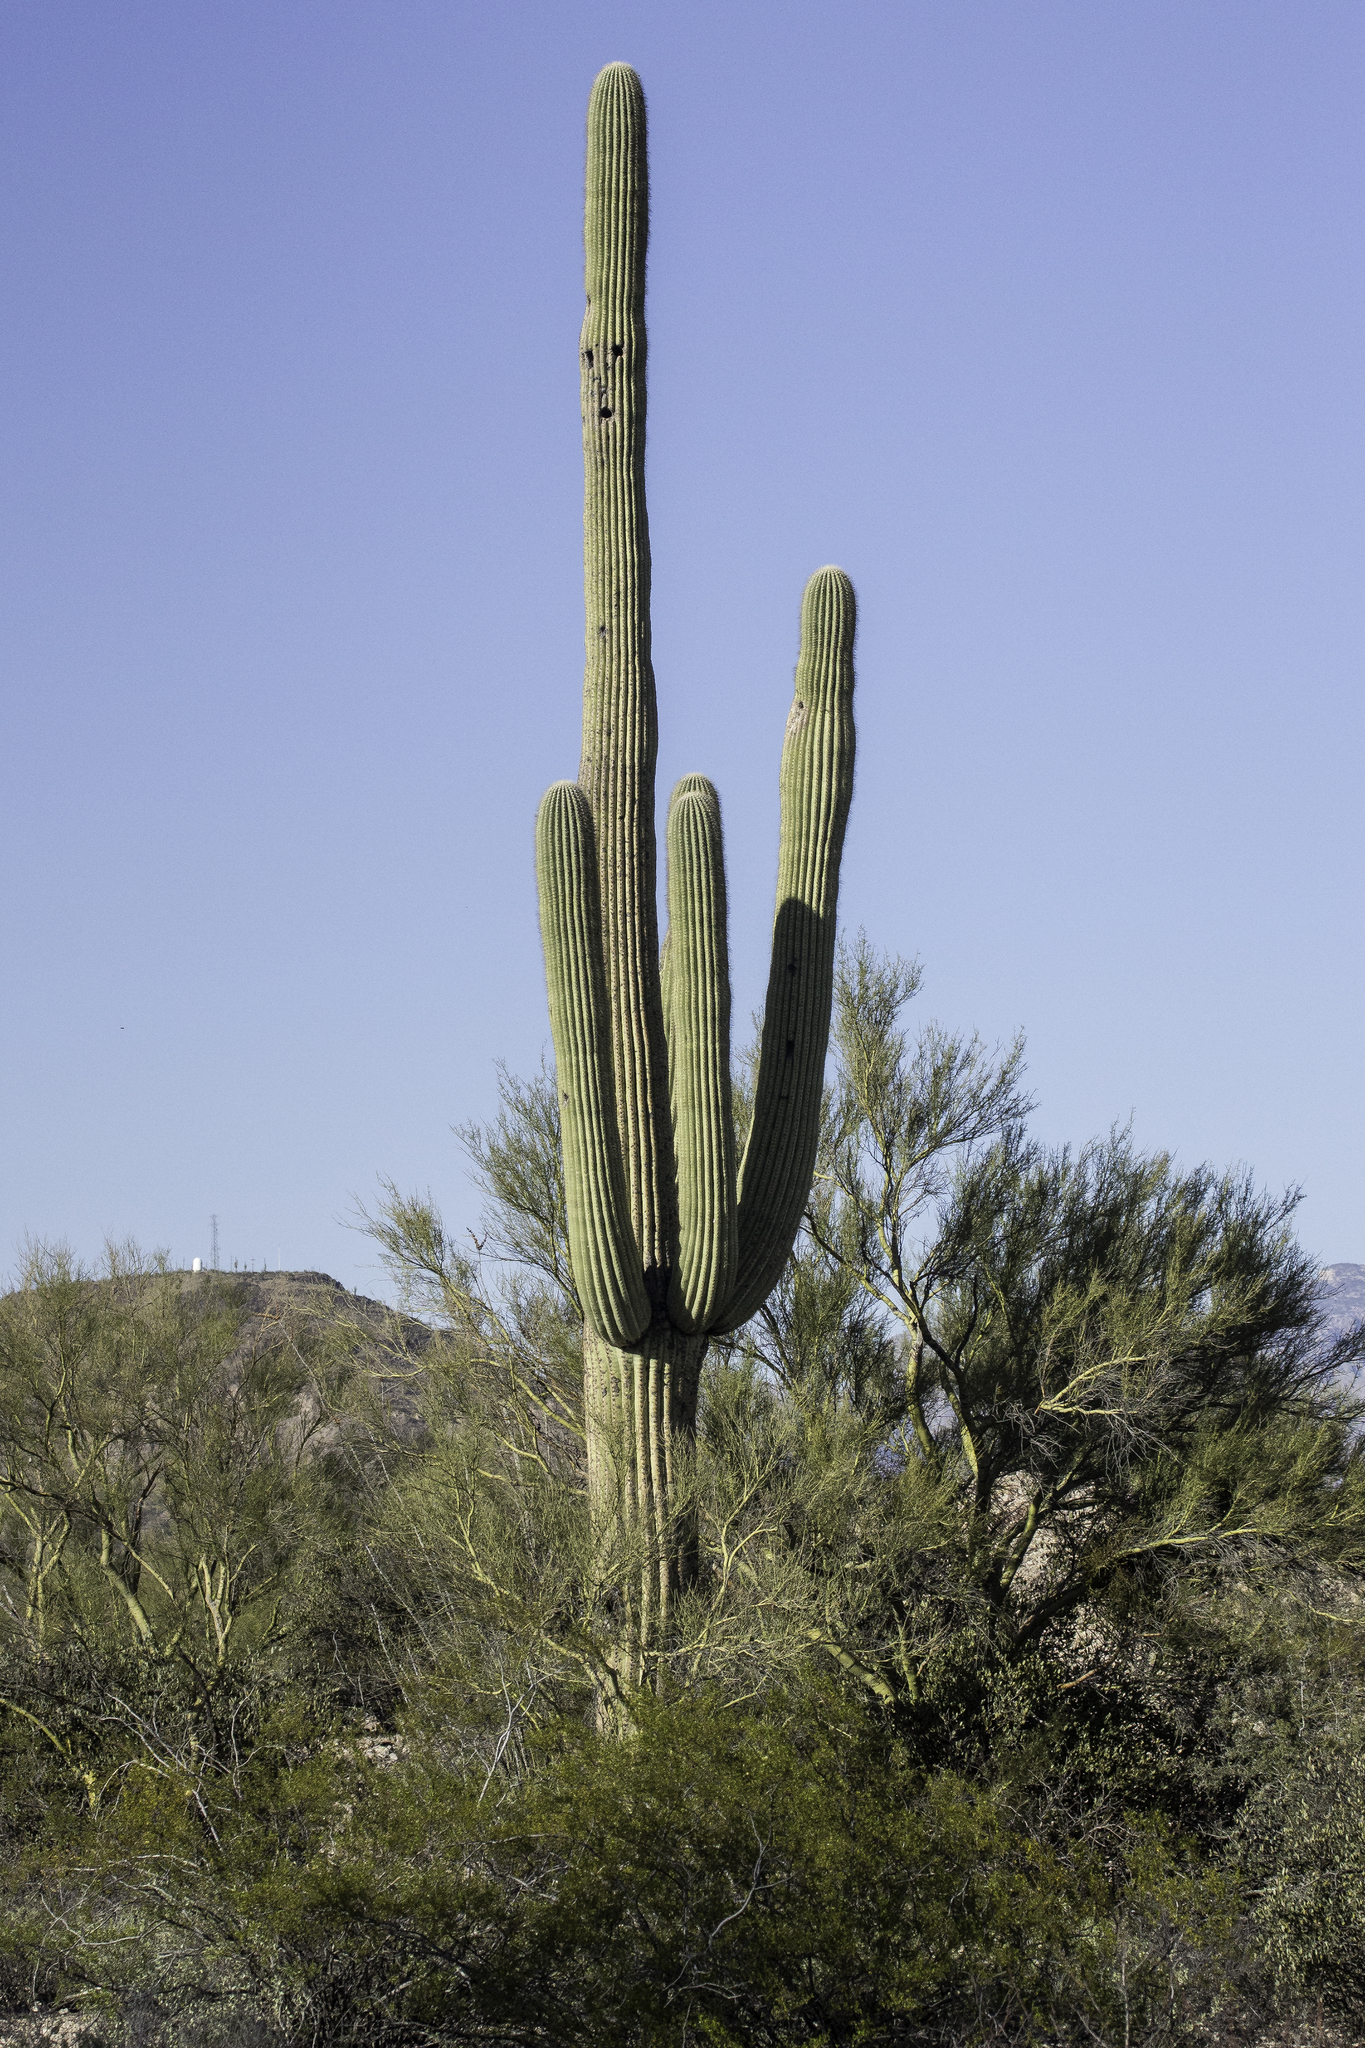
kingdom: Plantae
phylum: Tracheophyta
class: Magnoliopsida
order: Caryophyllales
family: Cactaceae
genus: Carnegiea
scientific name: Carnegiea gigantea
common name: Saguaro
